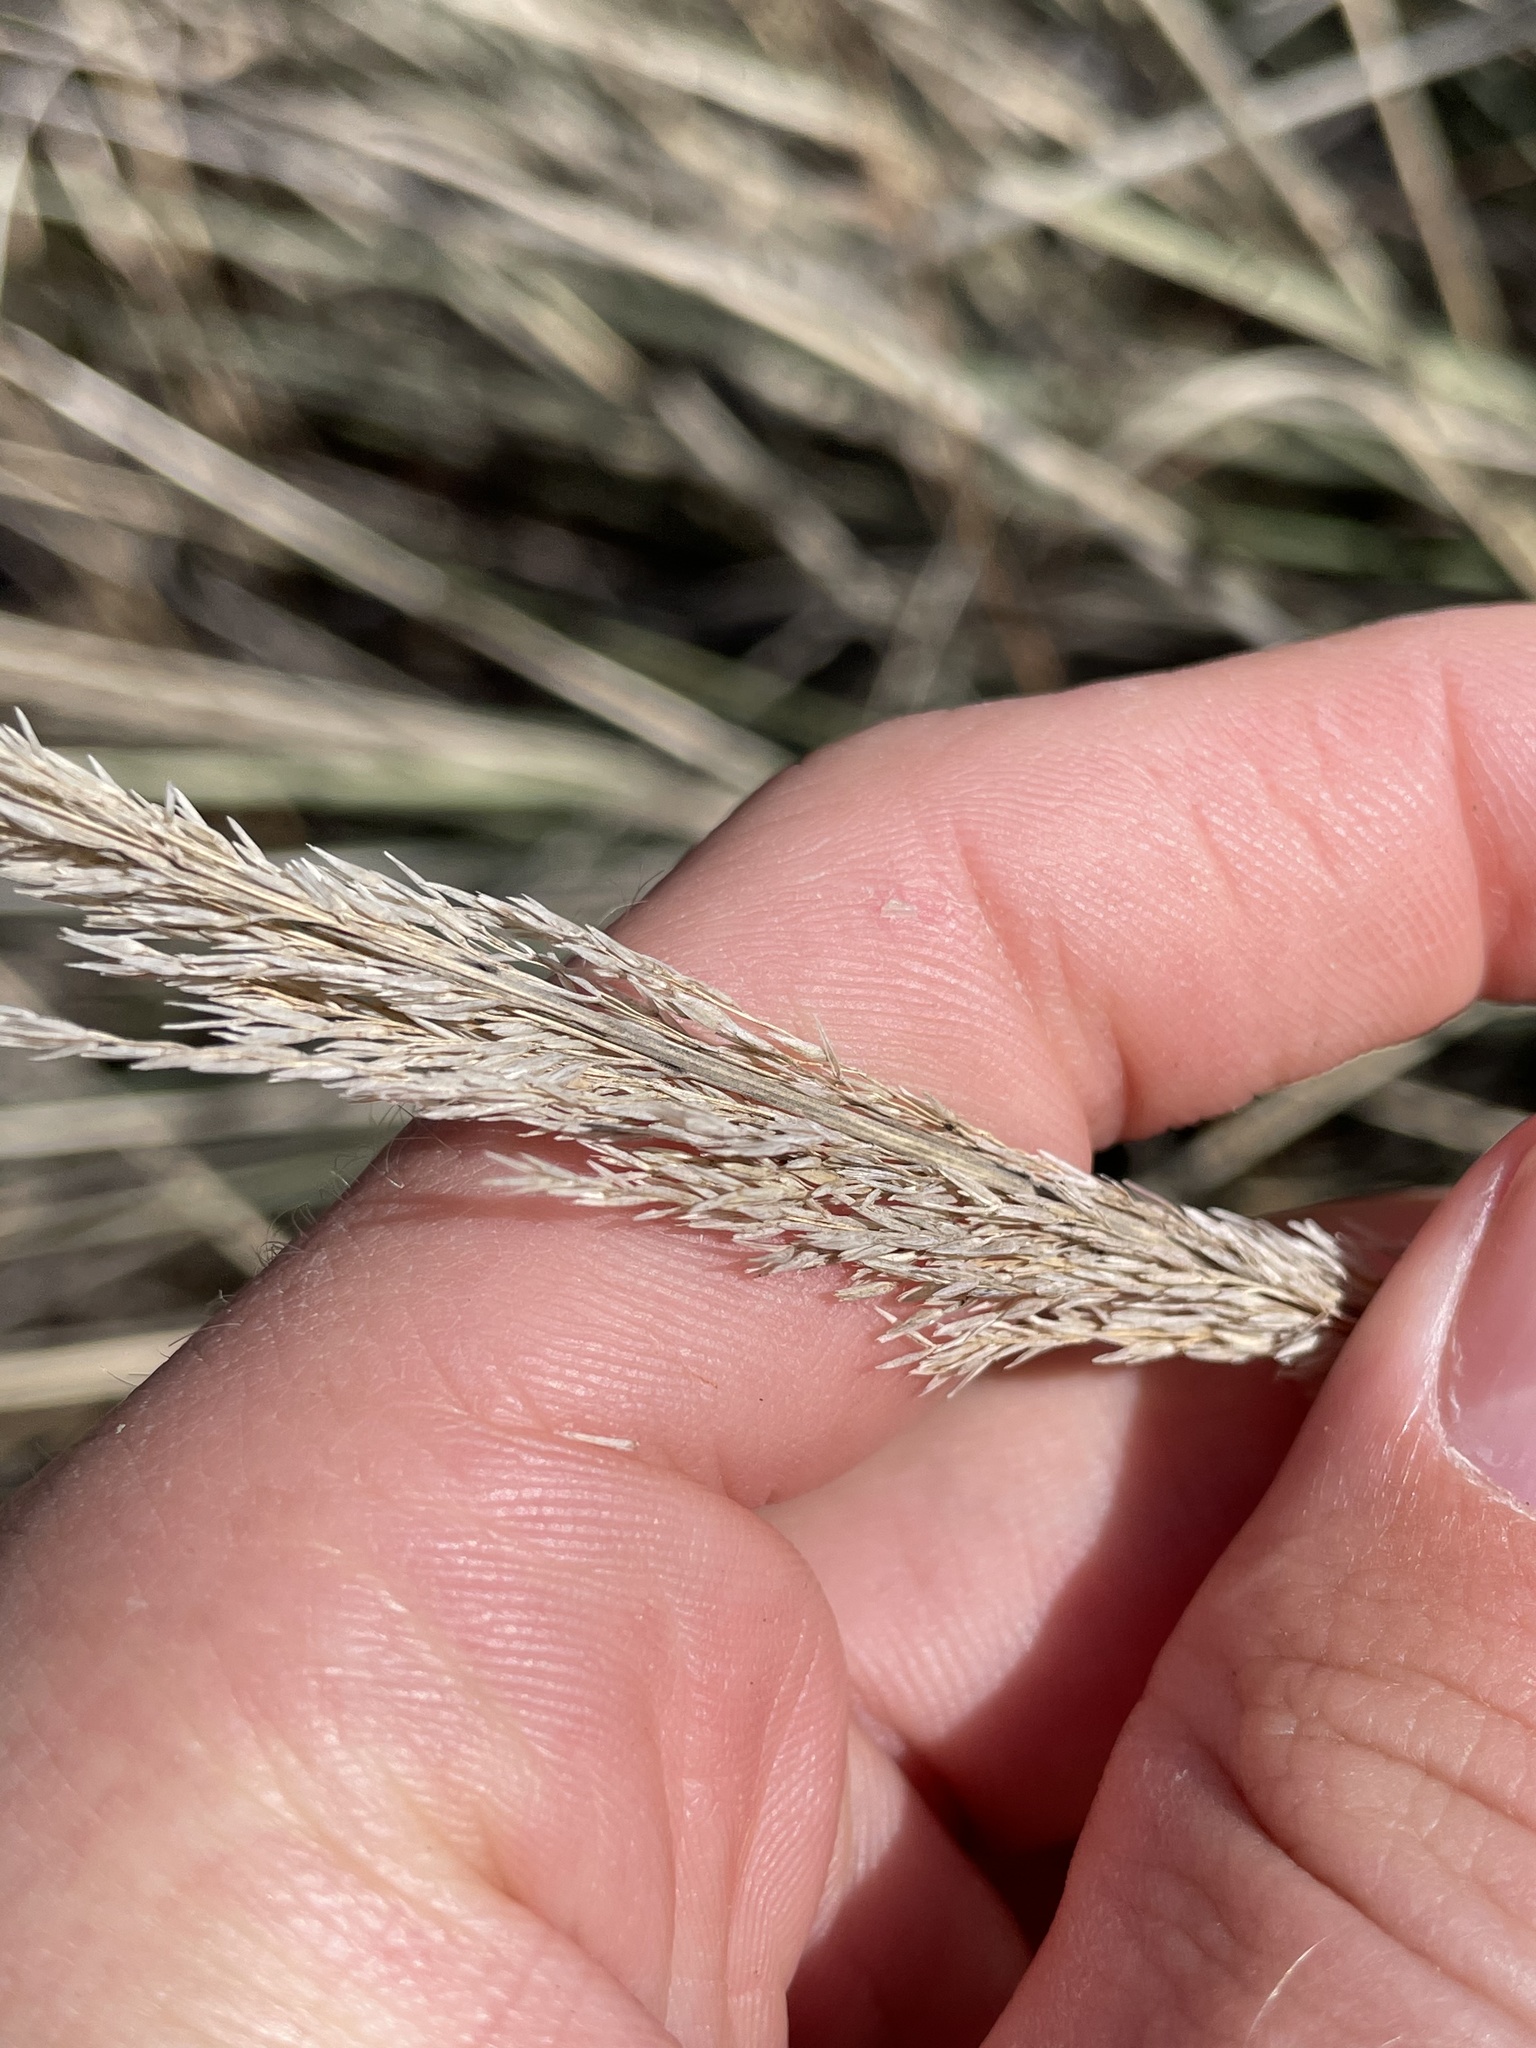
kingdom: Plantae
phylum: Tracheophyta
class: Liliopsida
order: Poales
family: Poaceae
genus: Muhlenbergia
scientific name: Muhlenbergia lindheimeri
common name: Lindheimer's muhly
